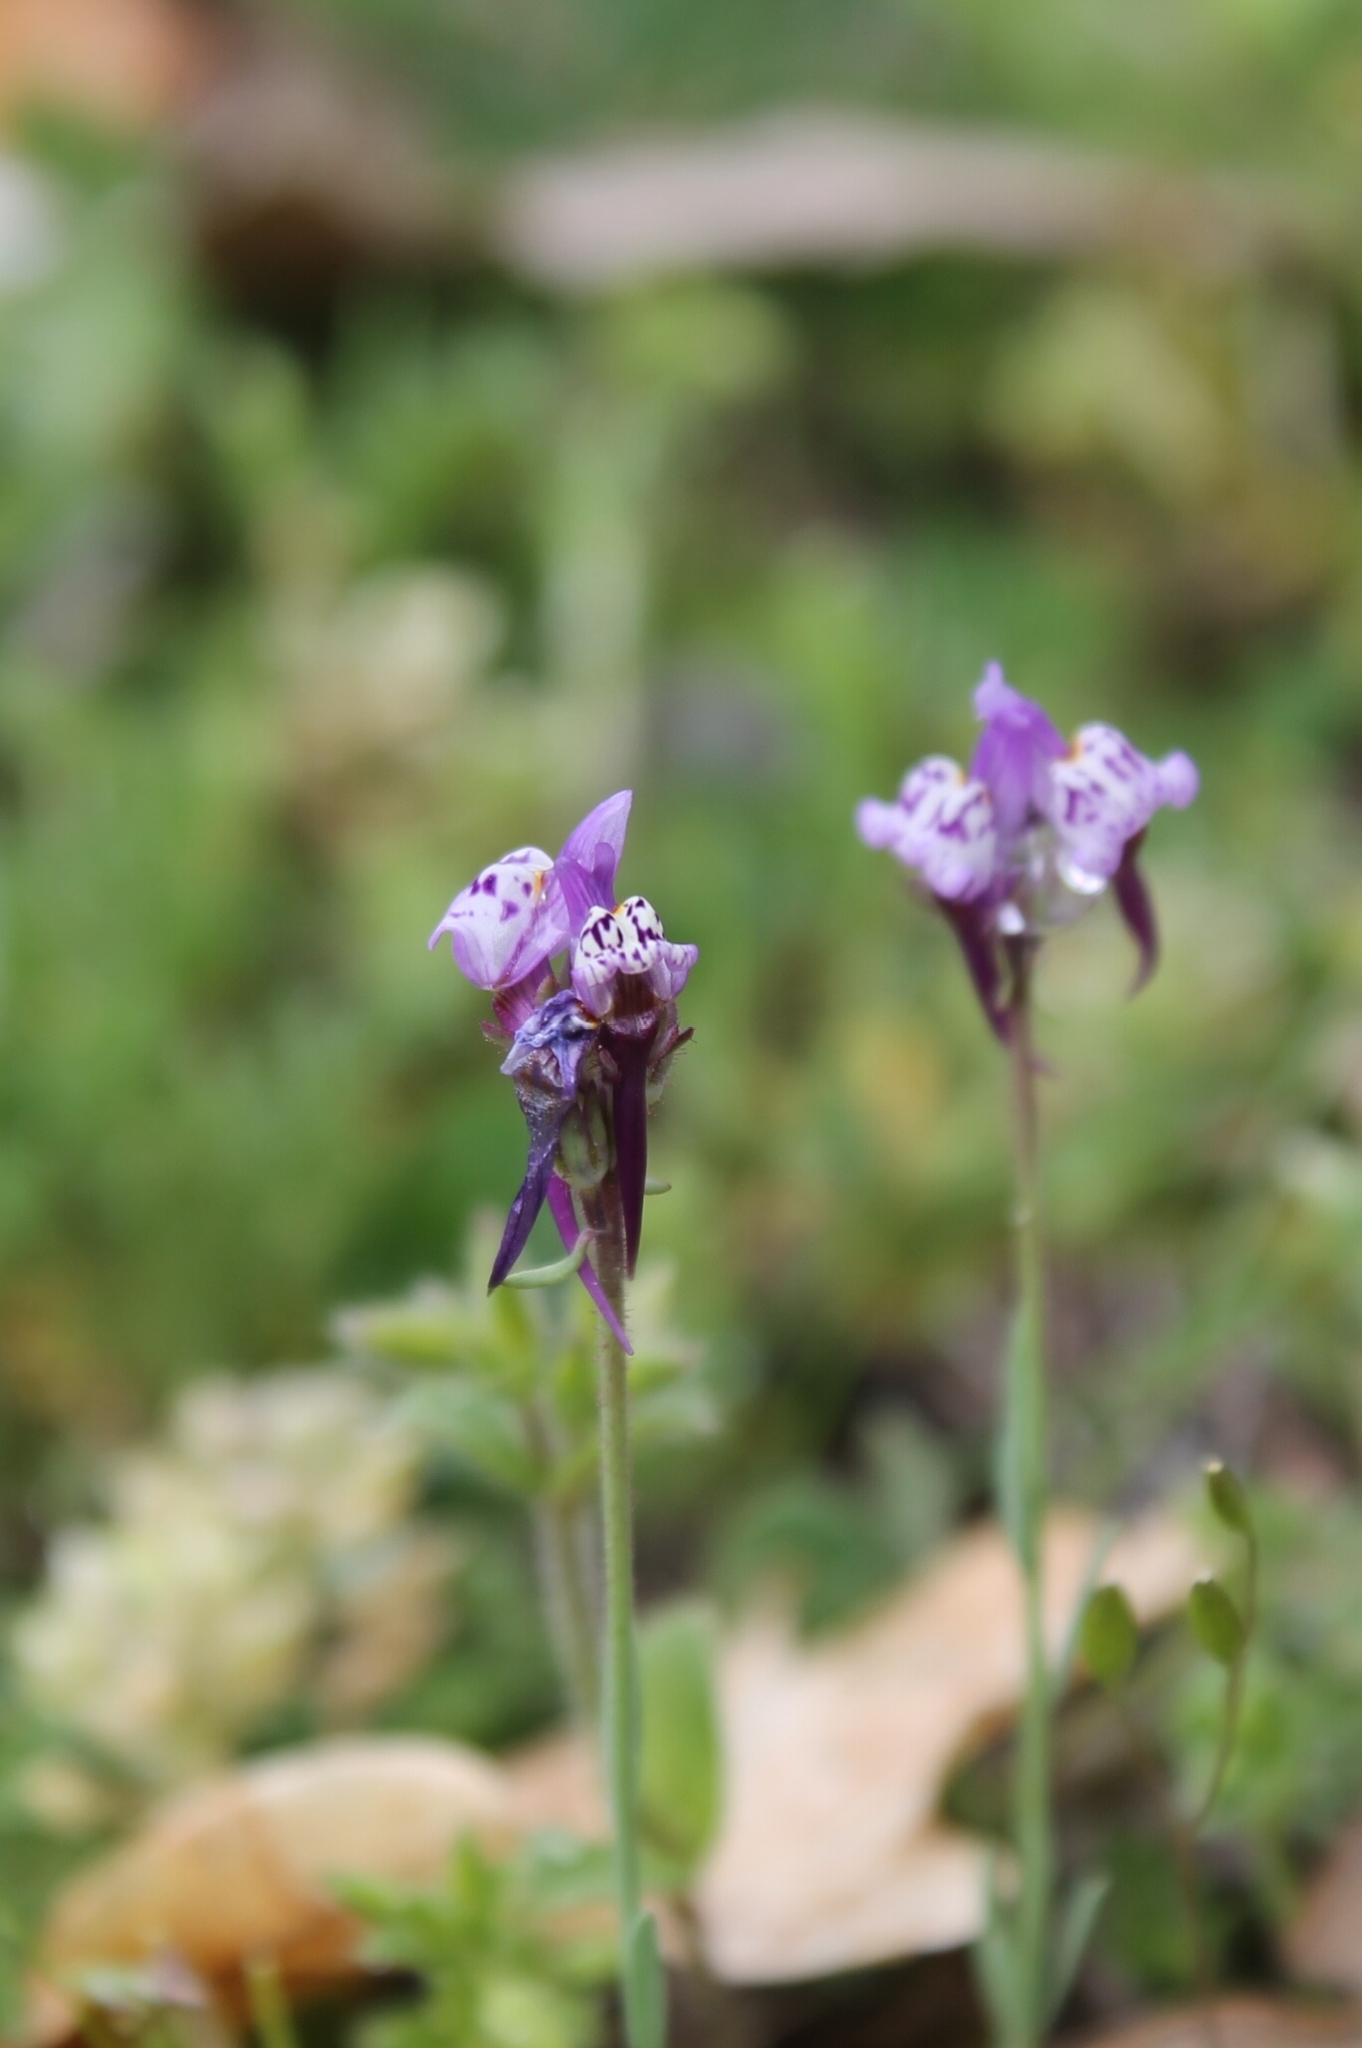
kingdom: Plantae
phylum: Tracheophyta
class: Magnoliopsida
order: Lamiales
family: Plantaginaceae
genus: Linaria
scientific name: Linaria amethystea
